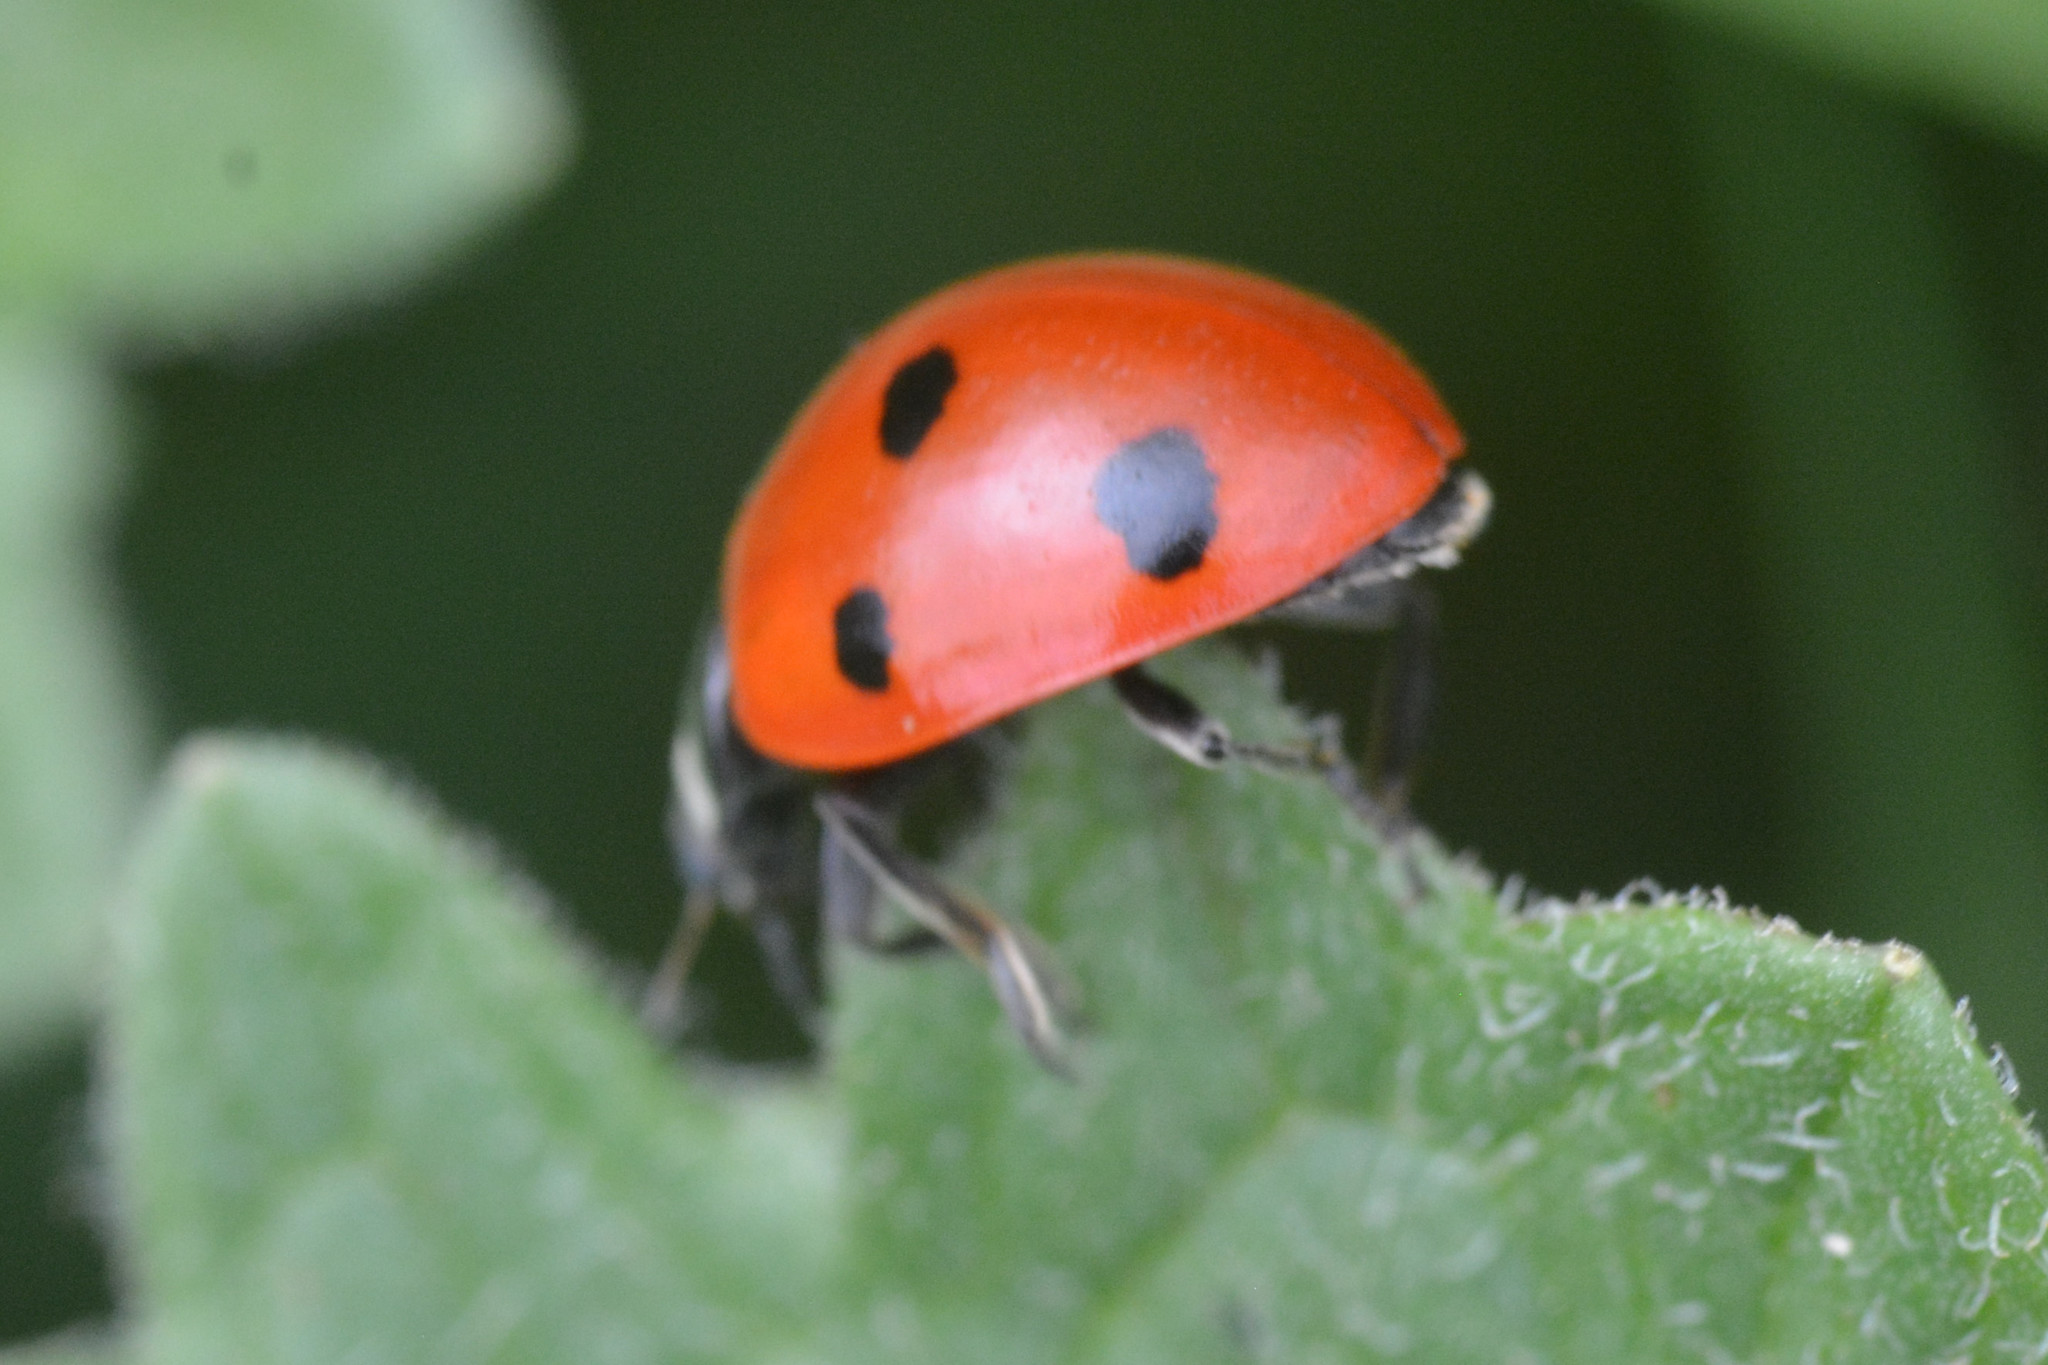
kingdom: Animalia
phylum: Arthropoda
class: Insecta
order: Coleoptera
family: Coccinellidae
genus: Coccinella
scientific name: Coccinella septempunctata
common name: Sevenspotted lady beetle
